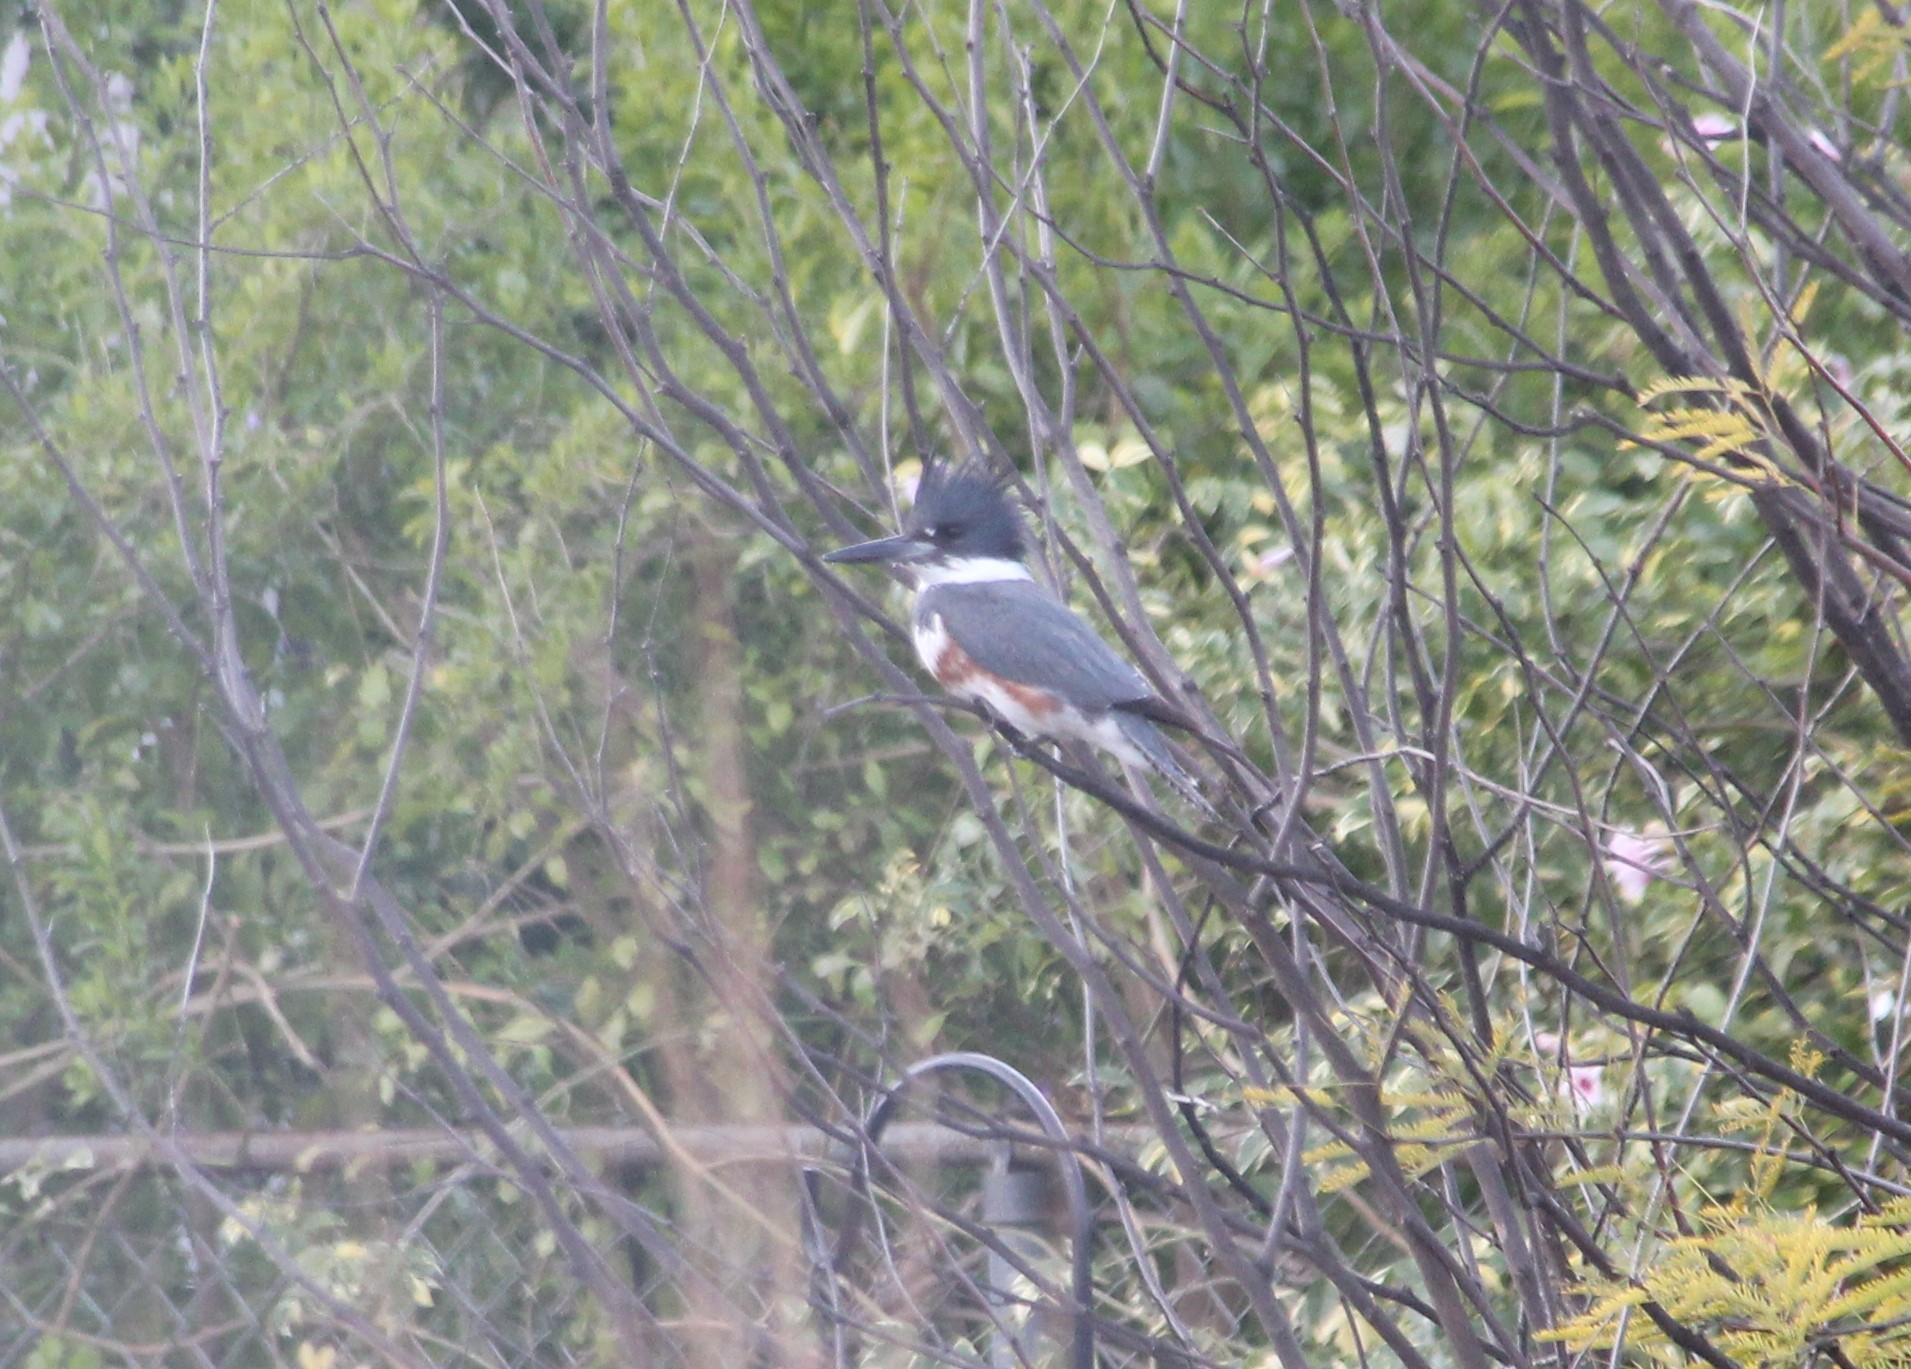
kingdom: Animalia
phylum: Chordata
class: Aves
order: Coraciiformes
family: Alcedinidae
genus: Megaceryle
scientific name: Megaceryle alcyon
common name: Belted kingfisher
